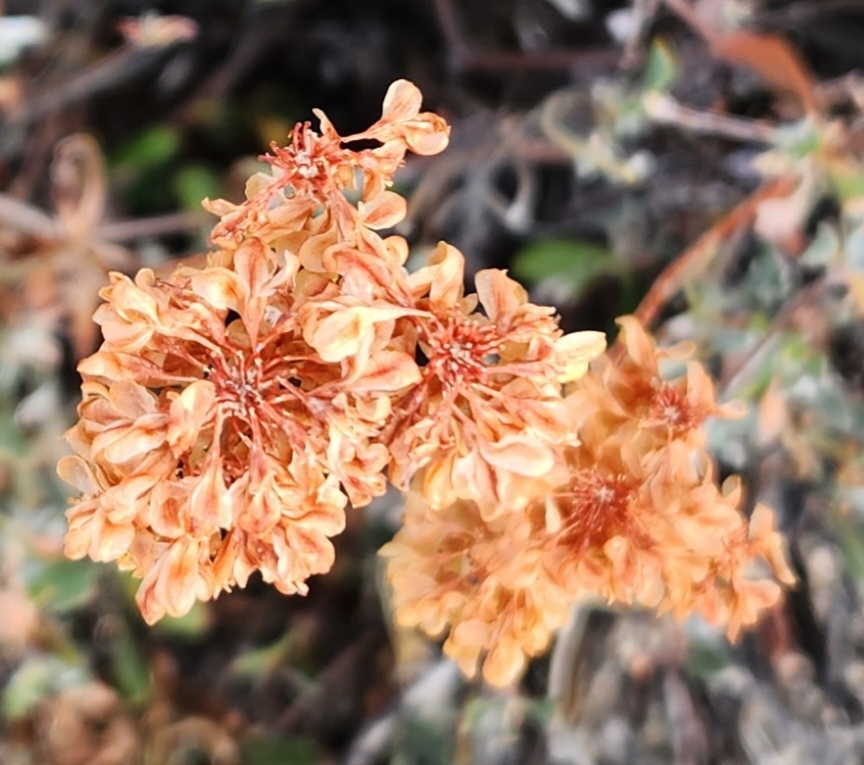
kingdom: Plantae
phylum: Tracheophyta
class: Magnoliopsida
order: Caryophyllales
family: Polygonaceae
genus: Eriogonum
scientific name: Eriogonum umbellatum
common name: Sulfur-buckwheat
